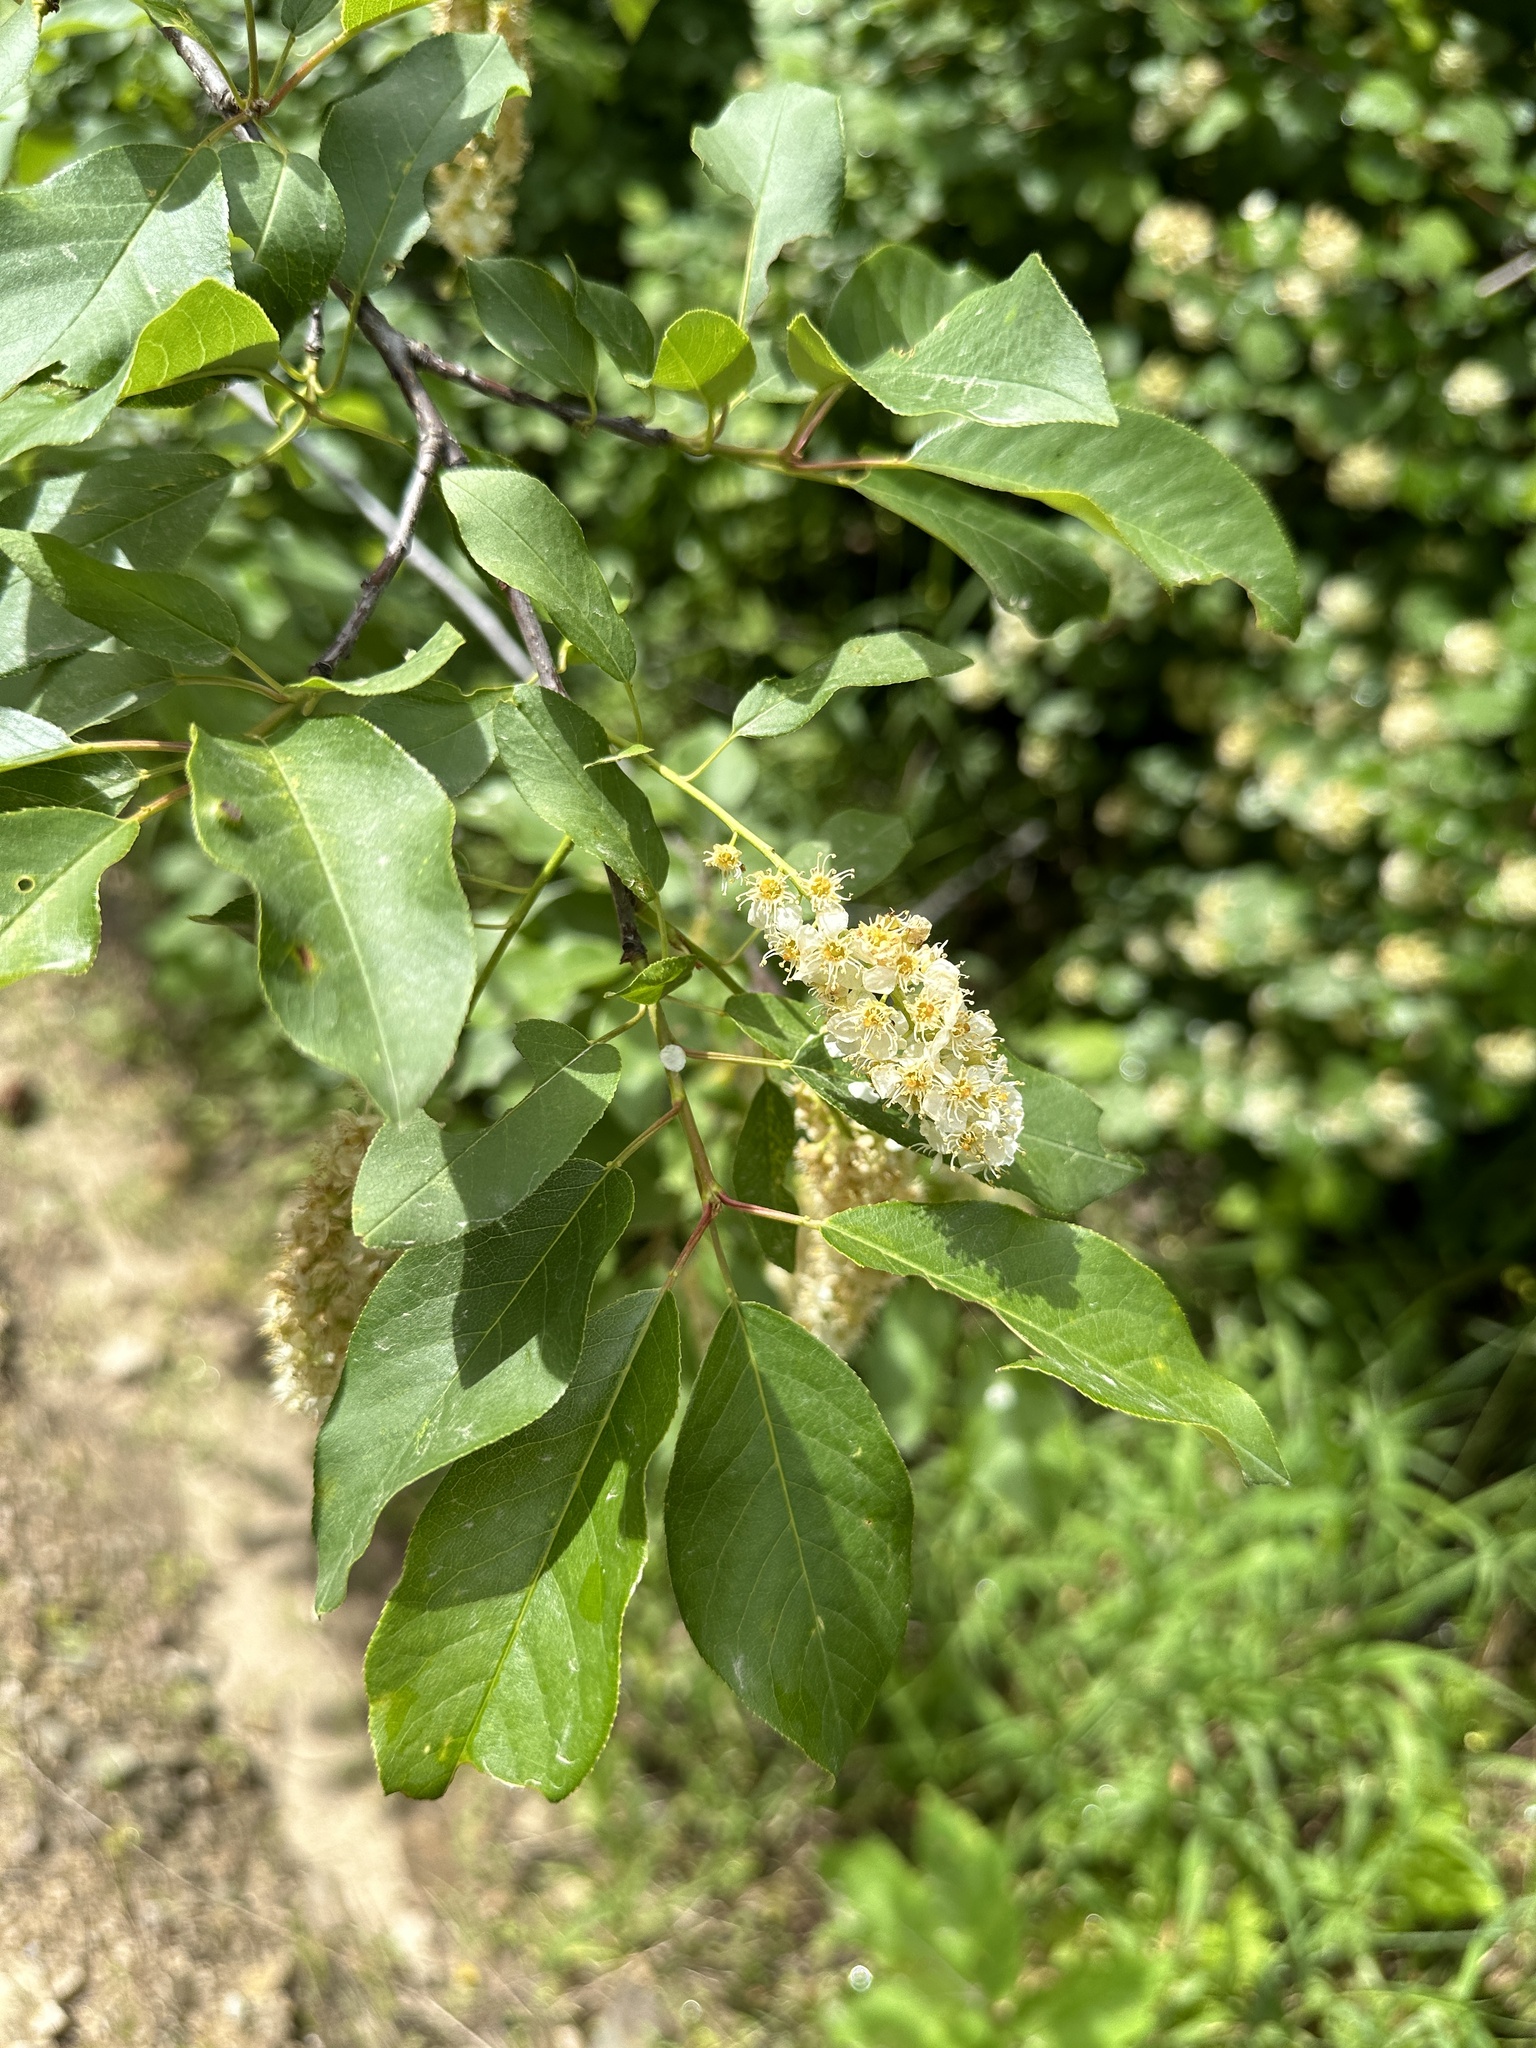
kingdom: Plantae
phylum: Tracheophyta
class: Magnoliopsida
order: Rosales
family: Rosaceae
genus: Prunus
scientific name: Prunus virginiana
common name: Chokecherry
